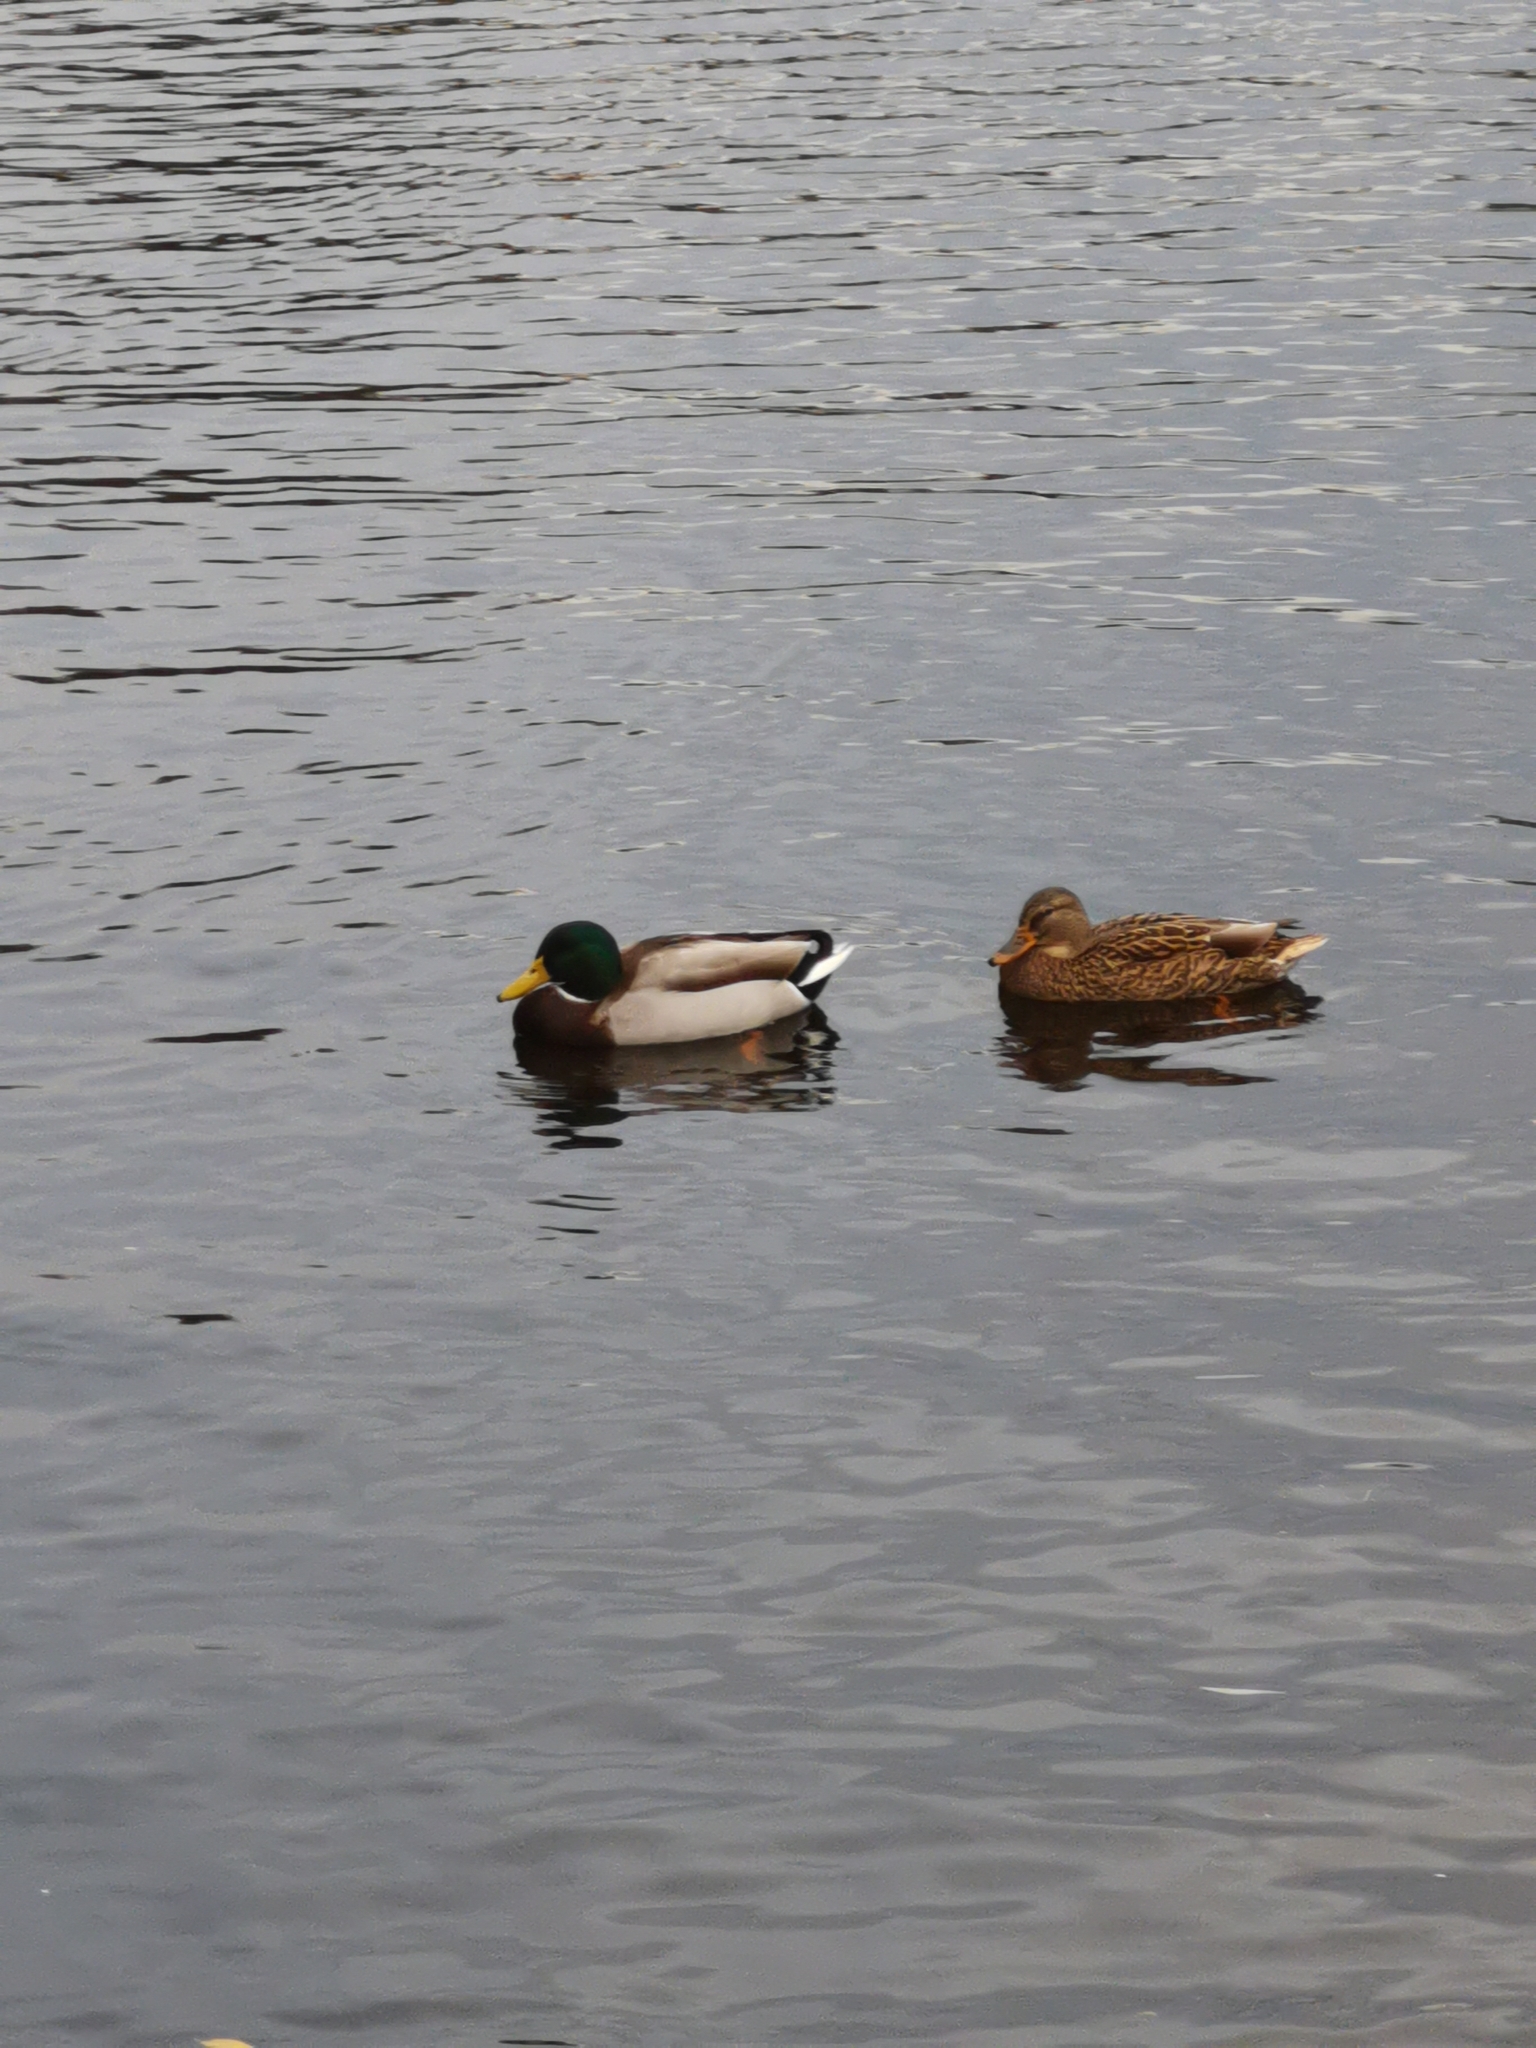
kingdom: Animalia
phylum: Chordata
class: Aves
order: Anseriformes
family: Anatidae
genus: Anas
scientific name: Anas platyrhynchos
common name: Mallard
